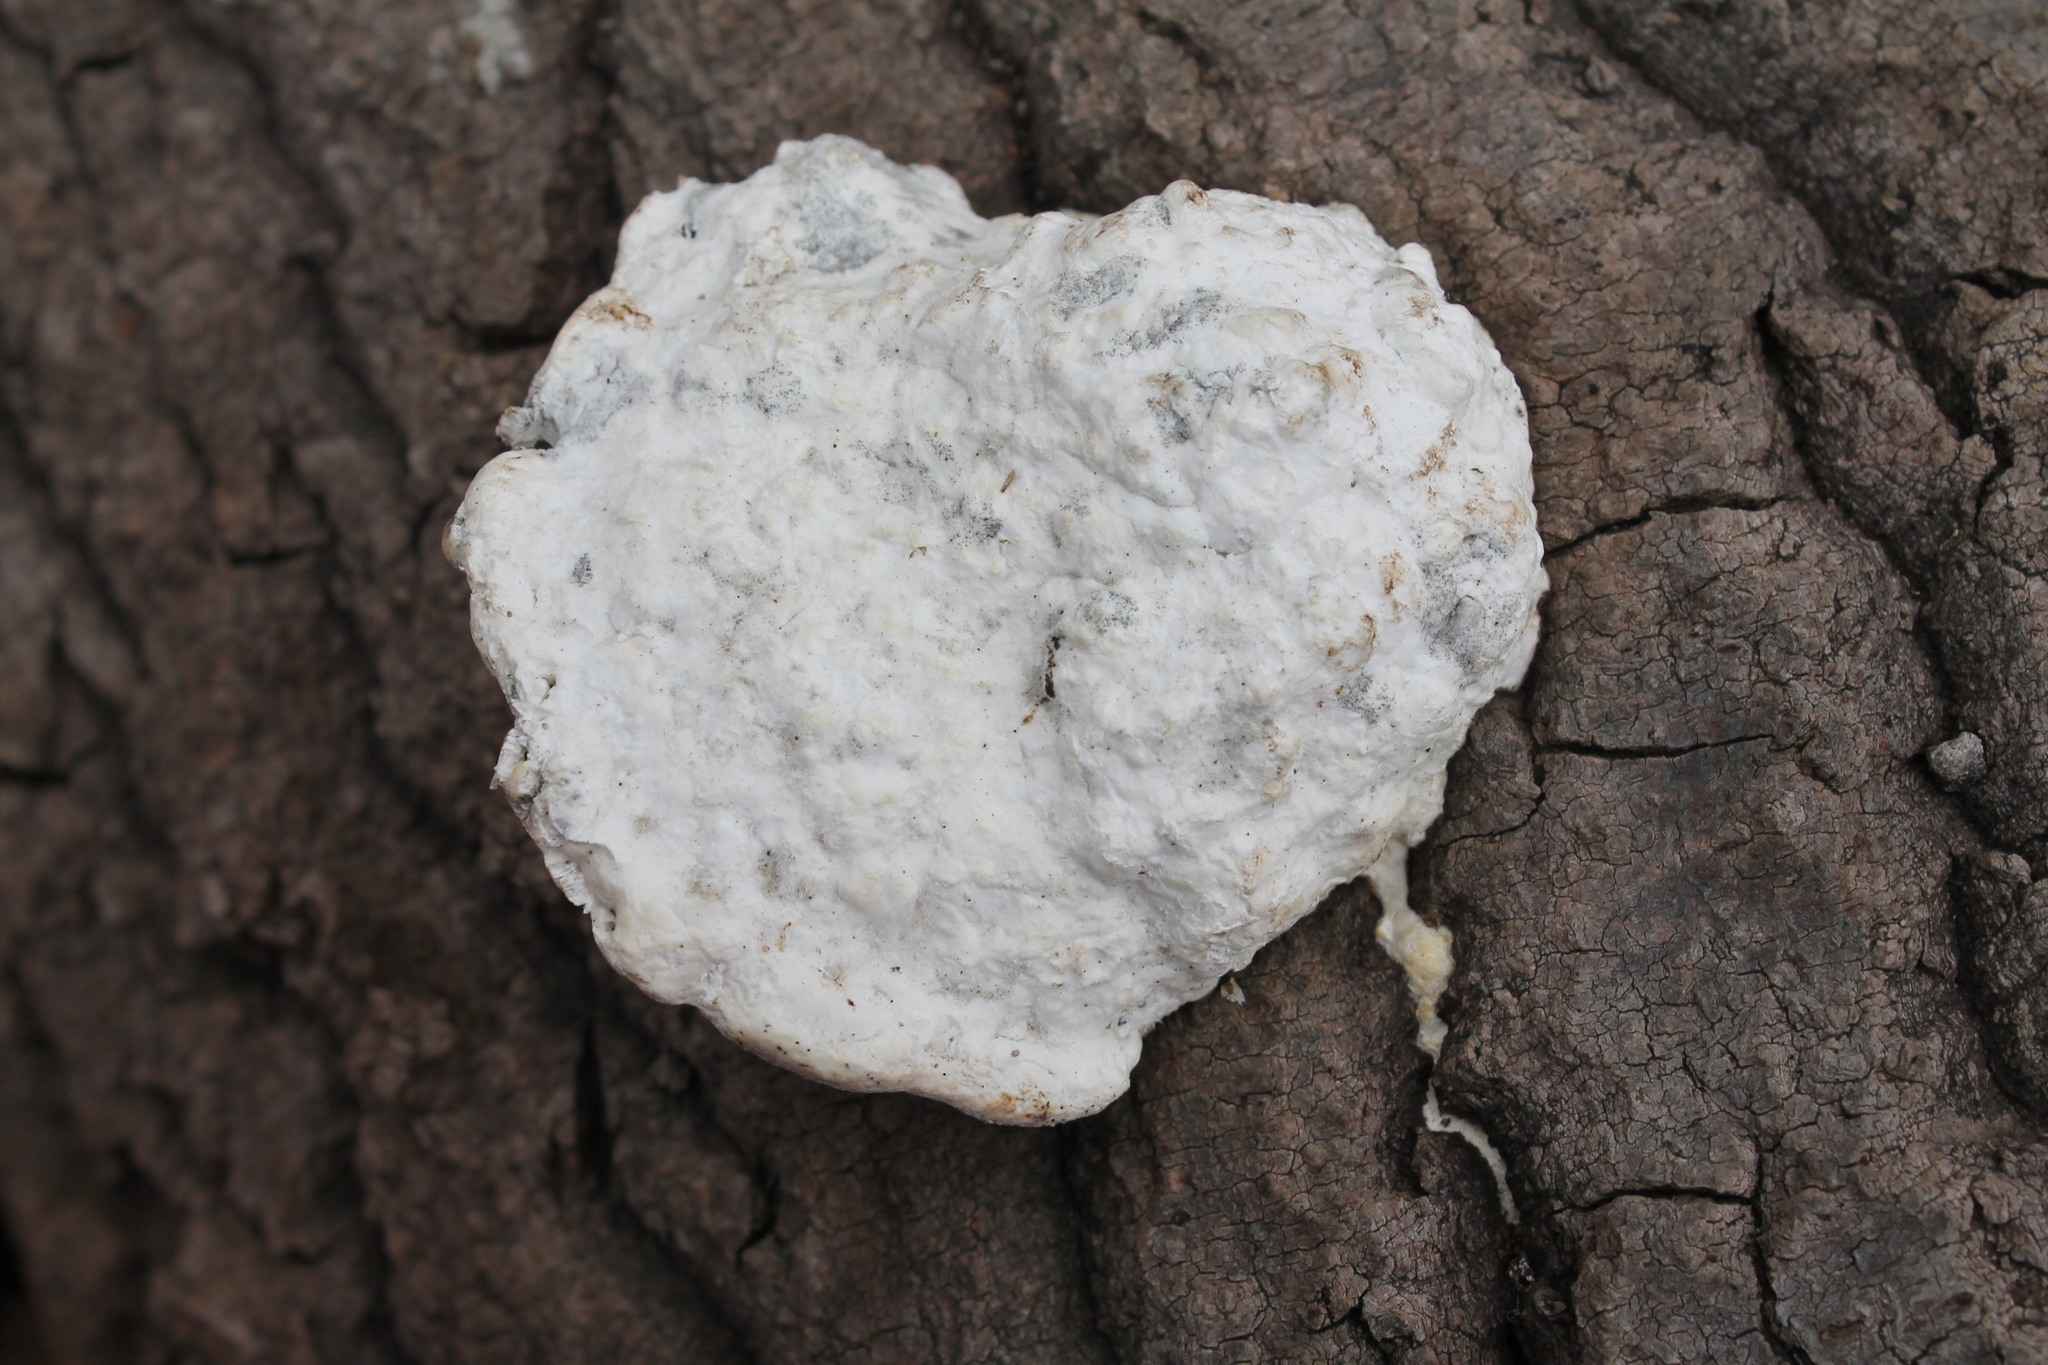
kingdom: Fungi
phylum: Basidiomycota
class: Agaricomycetes
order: Polyporales
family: Polyporaceae
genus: Trametes
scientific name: Trametes gibbosa
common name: Lumpy bracket
